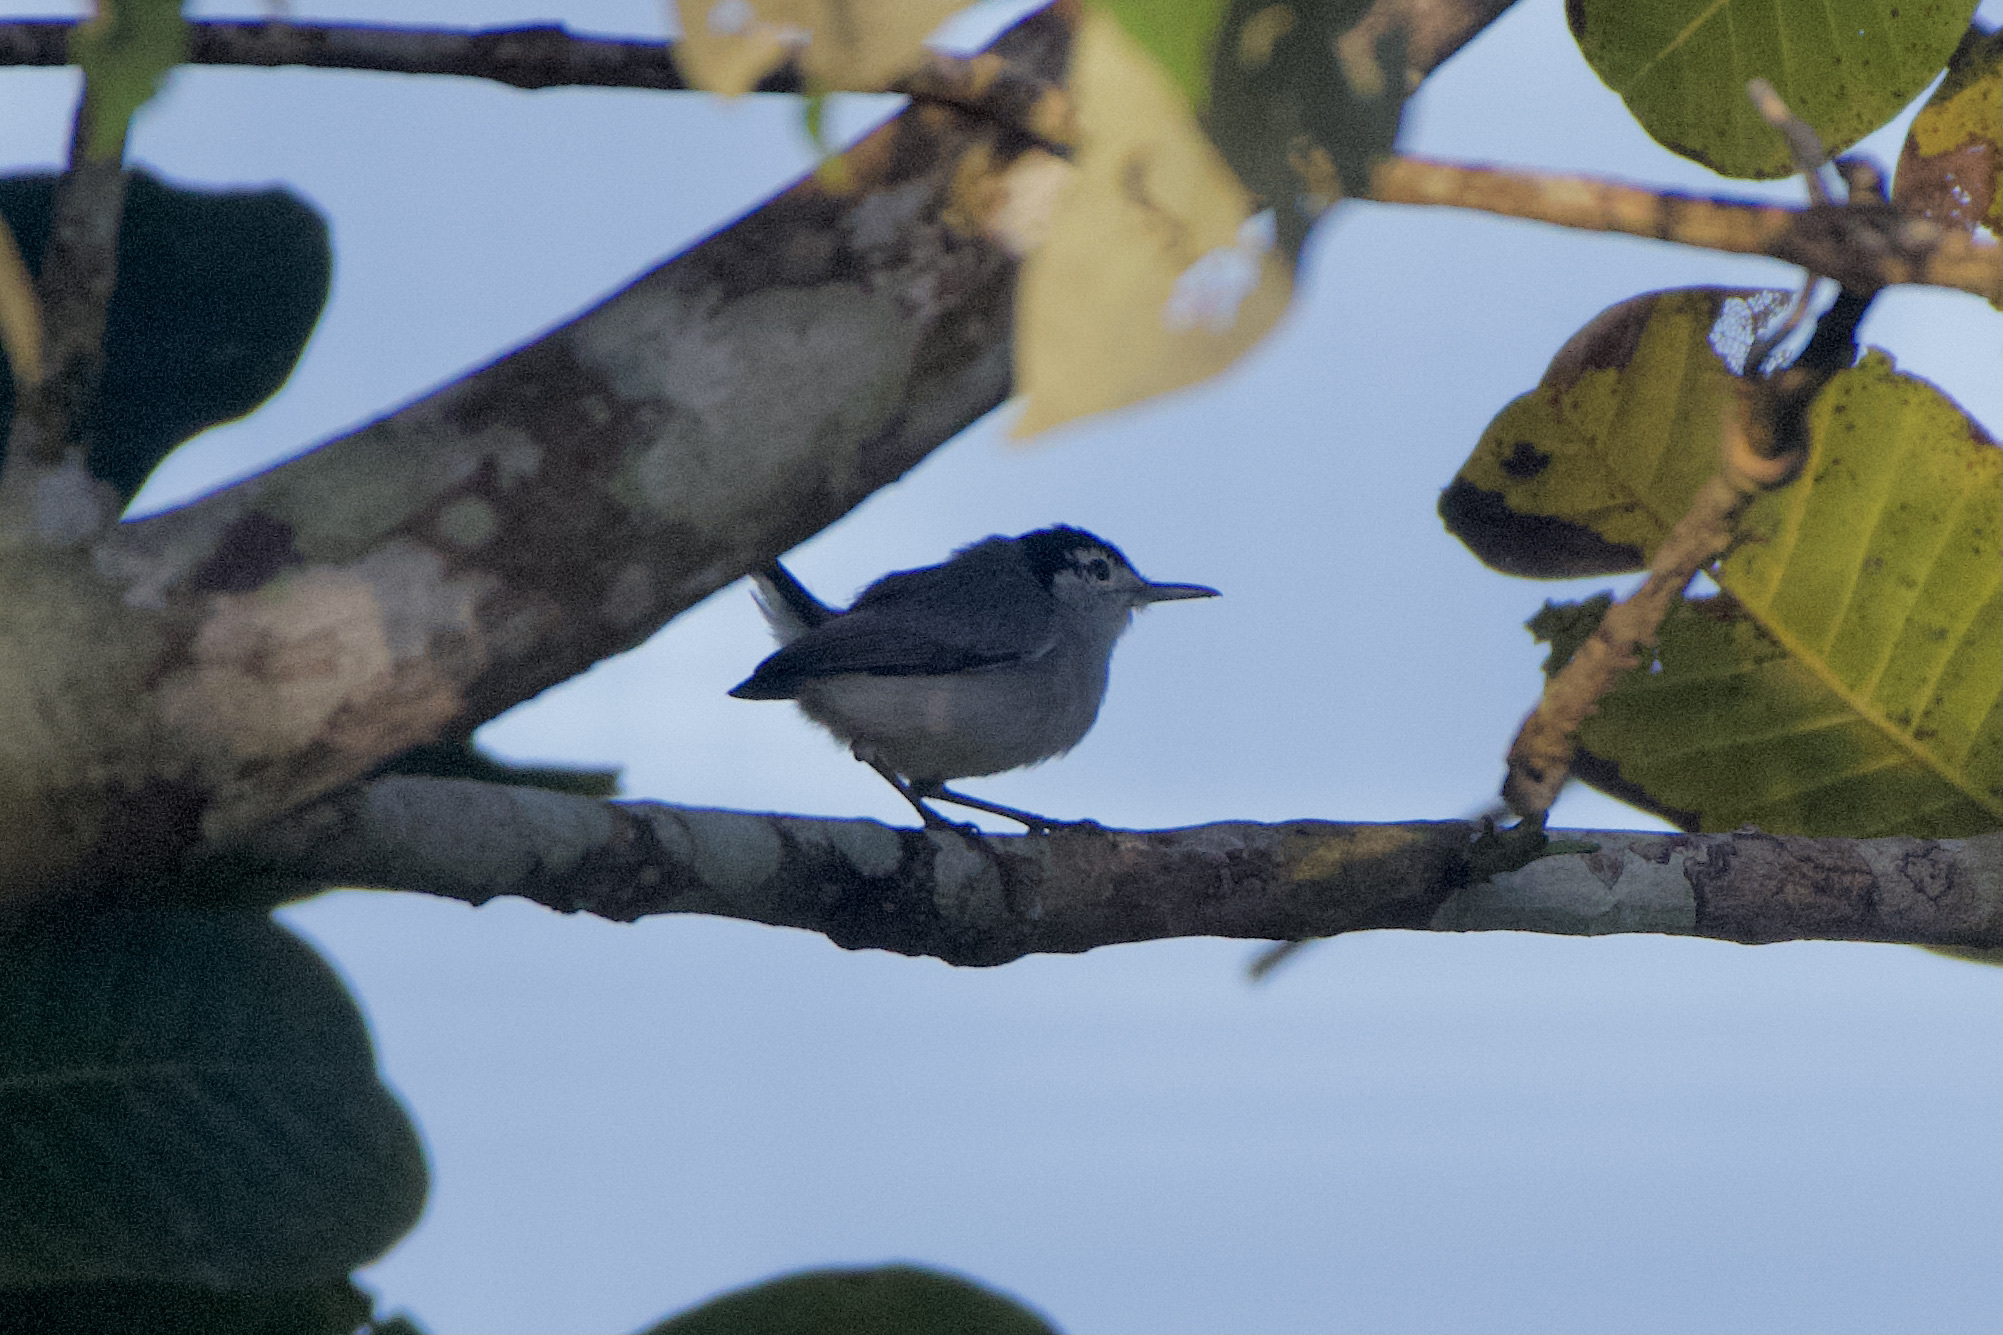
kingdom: Animalia
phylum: Chordata
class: Aves
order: Passeriformes
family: Polioptilidae
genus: Polioptila
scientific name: Polioptila plumbea
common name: Tropical gnatcatcher
